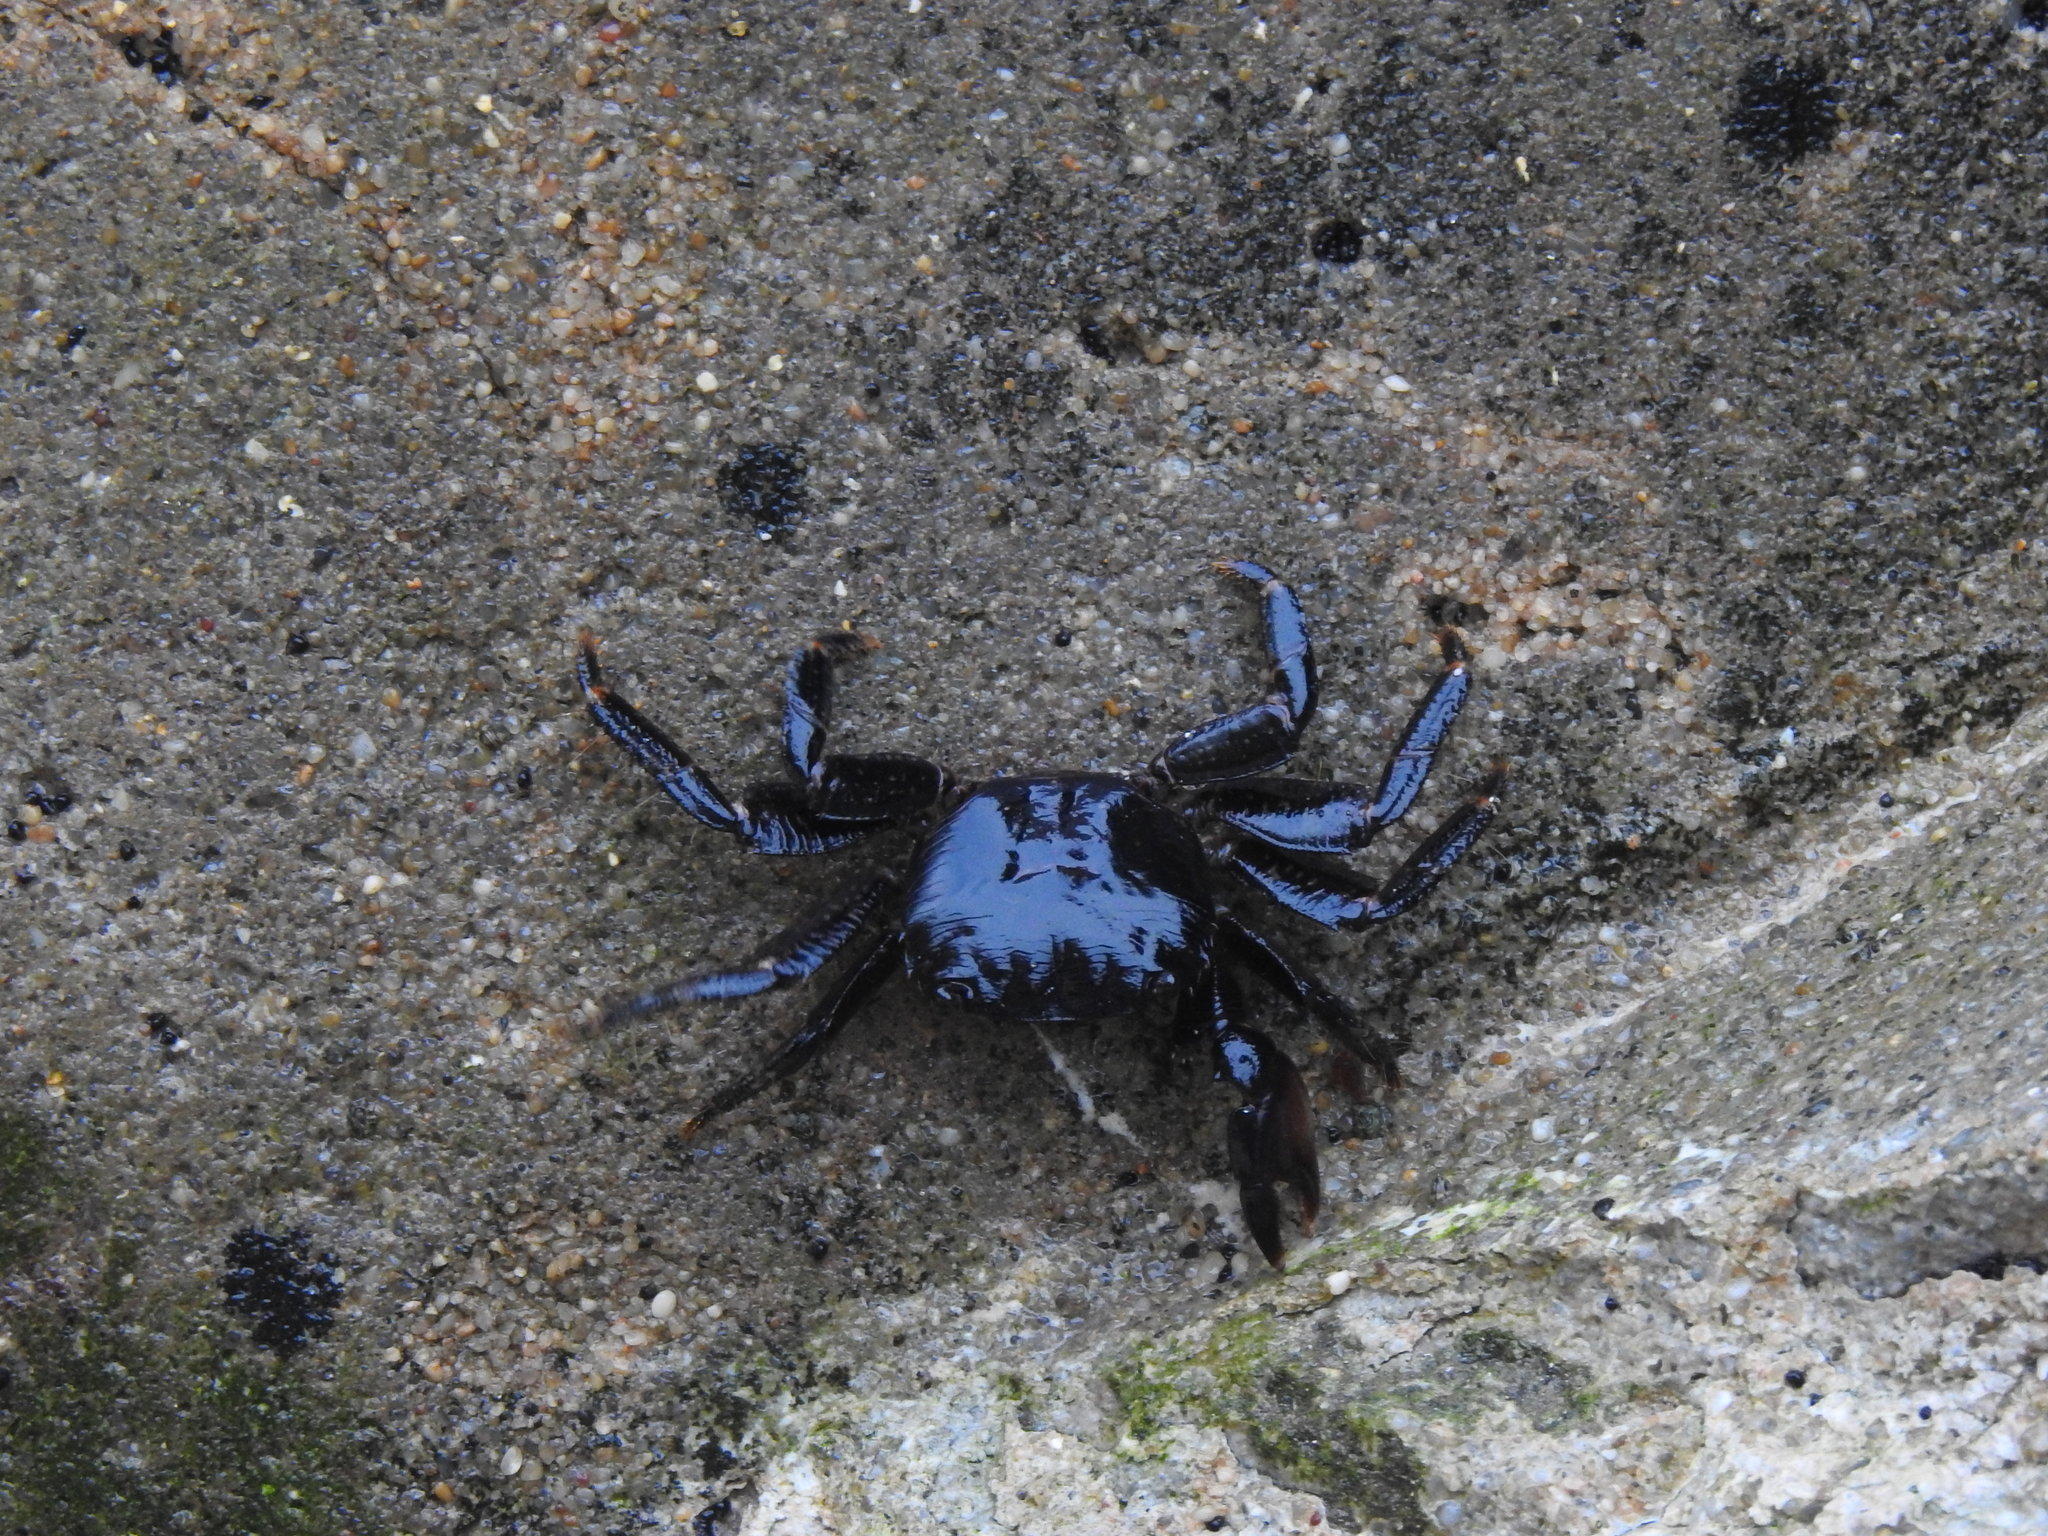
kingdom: Animalia
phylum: Arthropoda
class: Malacostraca
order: Decapoda
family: Grapsidae
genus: Pachygrapsus
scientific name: Pachygrapsus marmoratus
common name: Marbled rock crab
